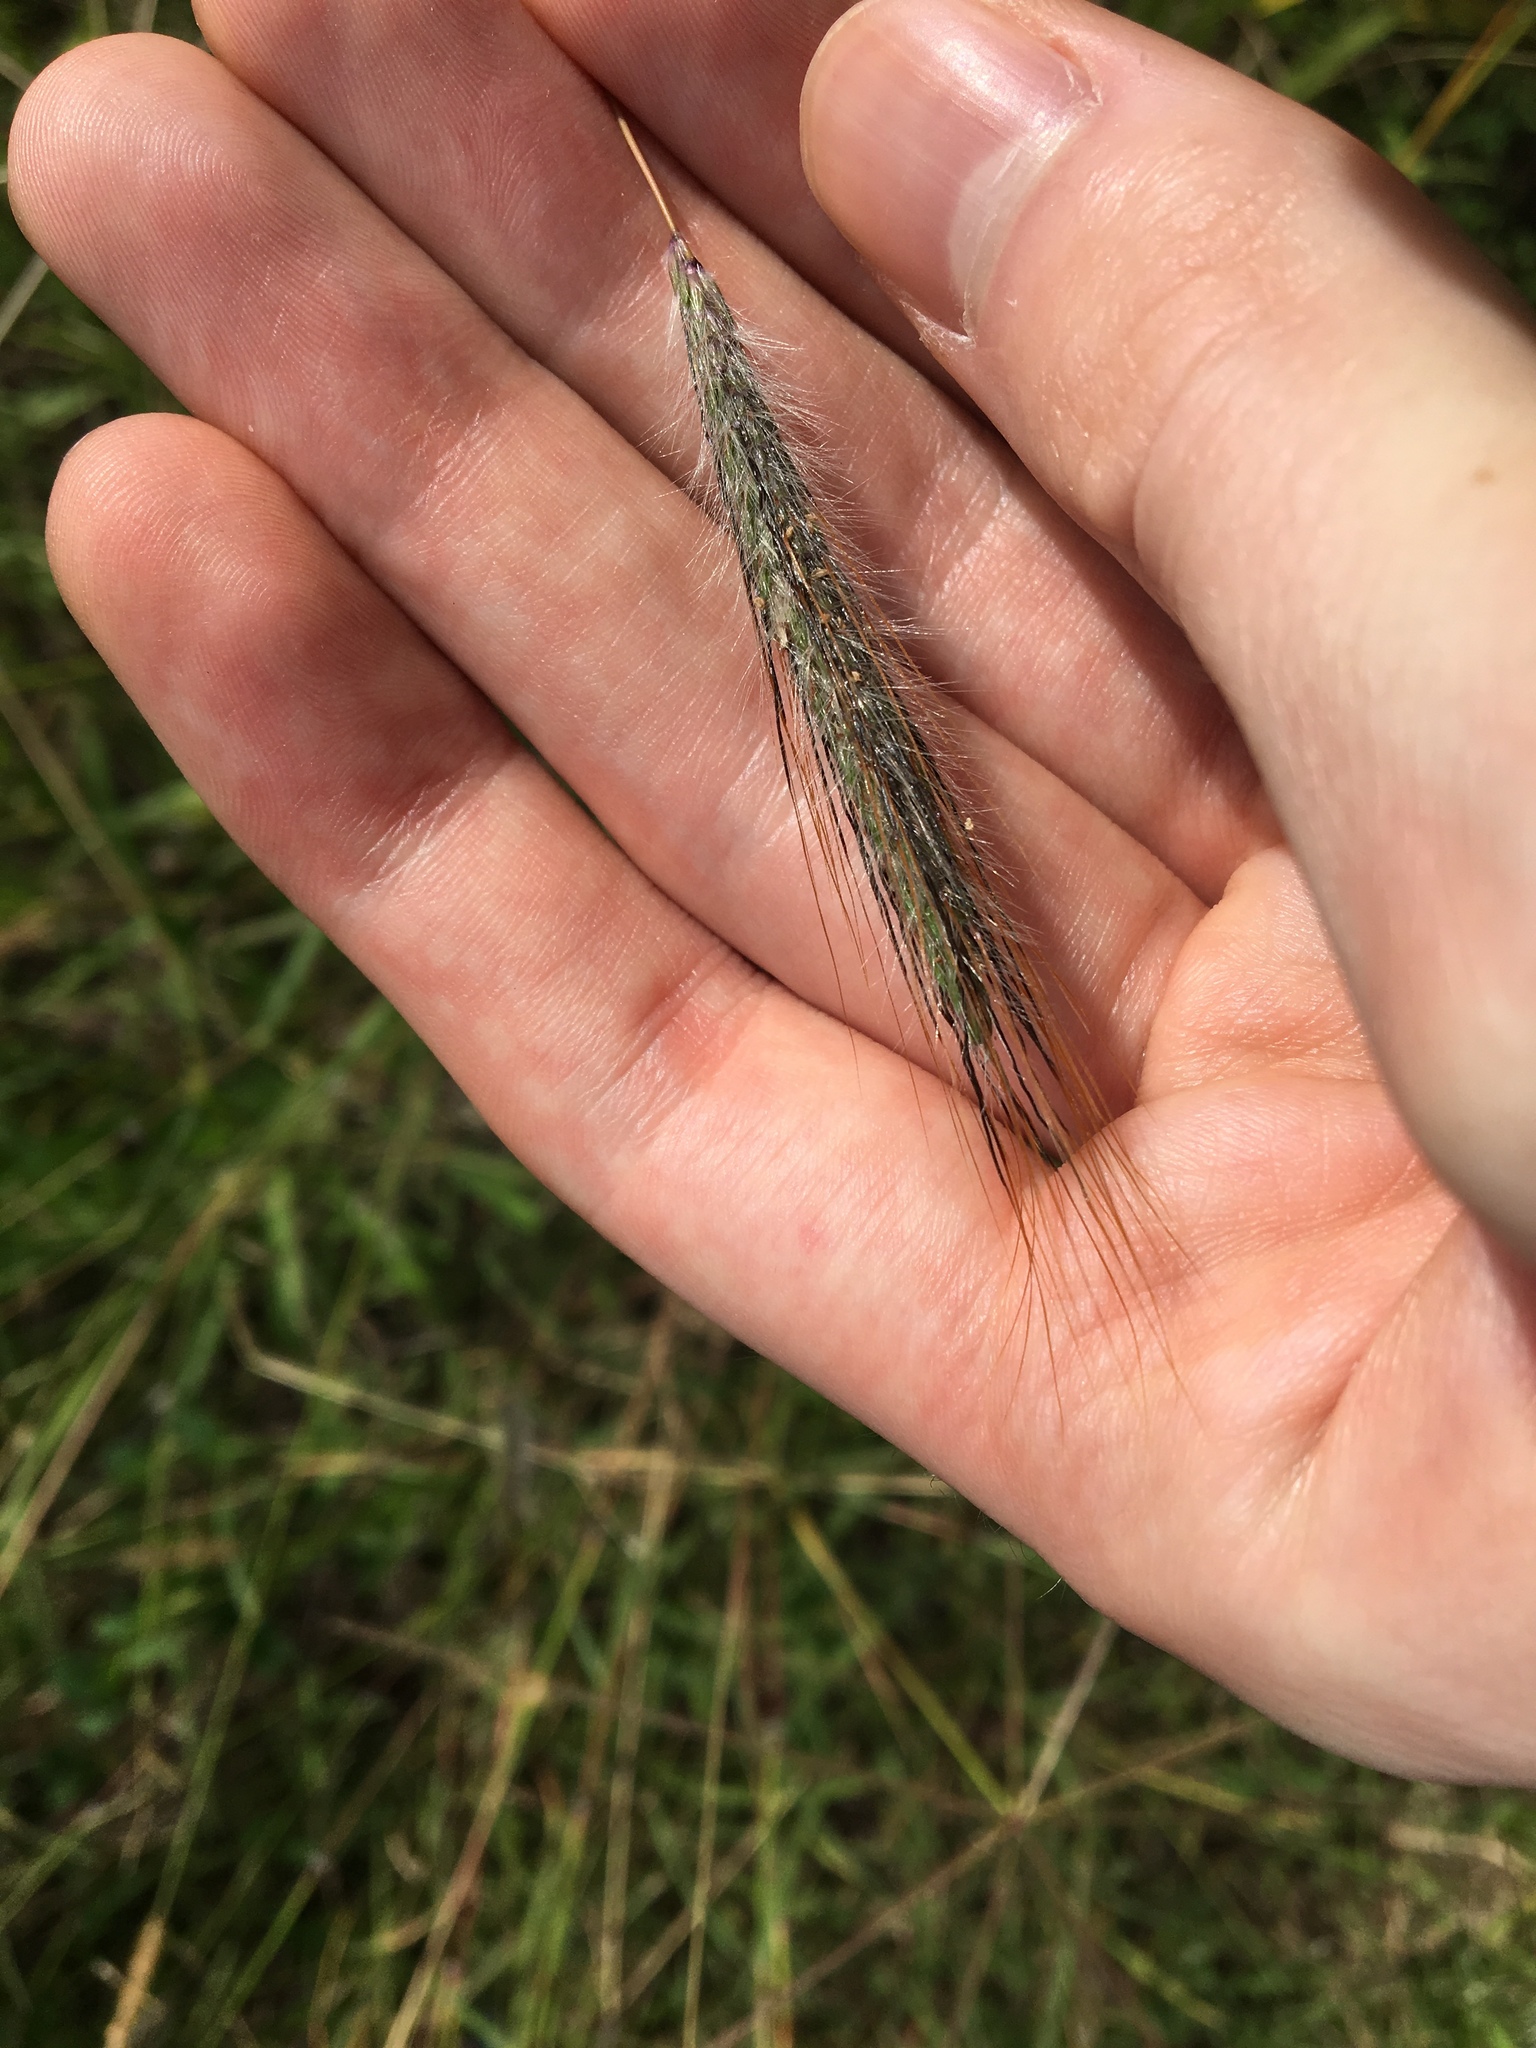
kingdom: Plantae
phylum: Tracheophyta
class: Liliopsida
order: Poales
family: Poaceae
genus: Dichanthium
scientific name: Dichanthium sericeum
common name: Silky bluestem
